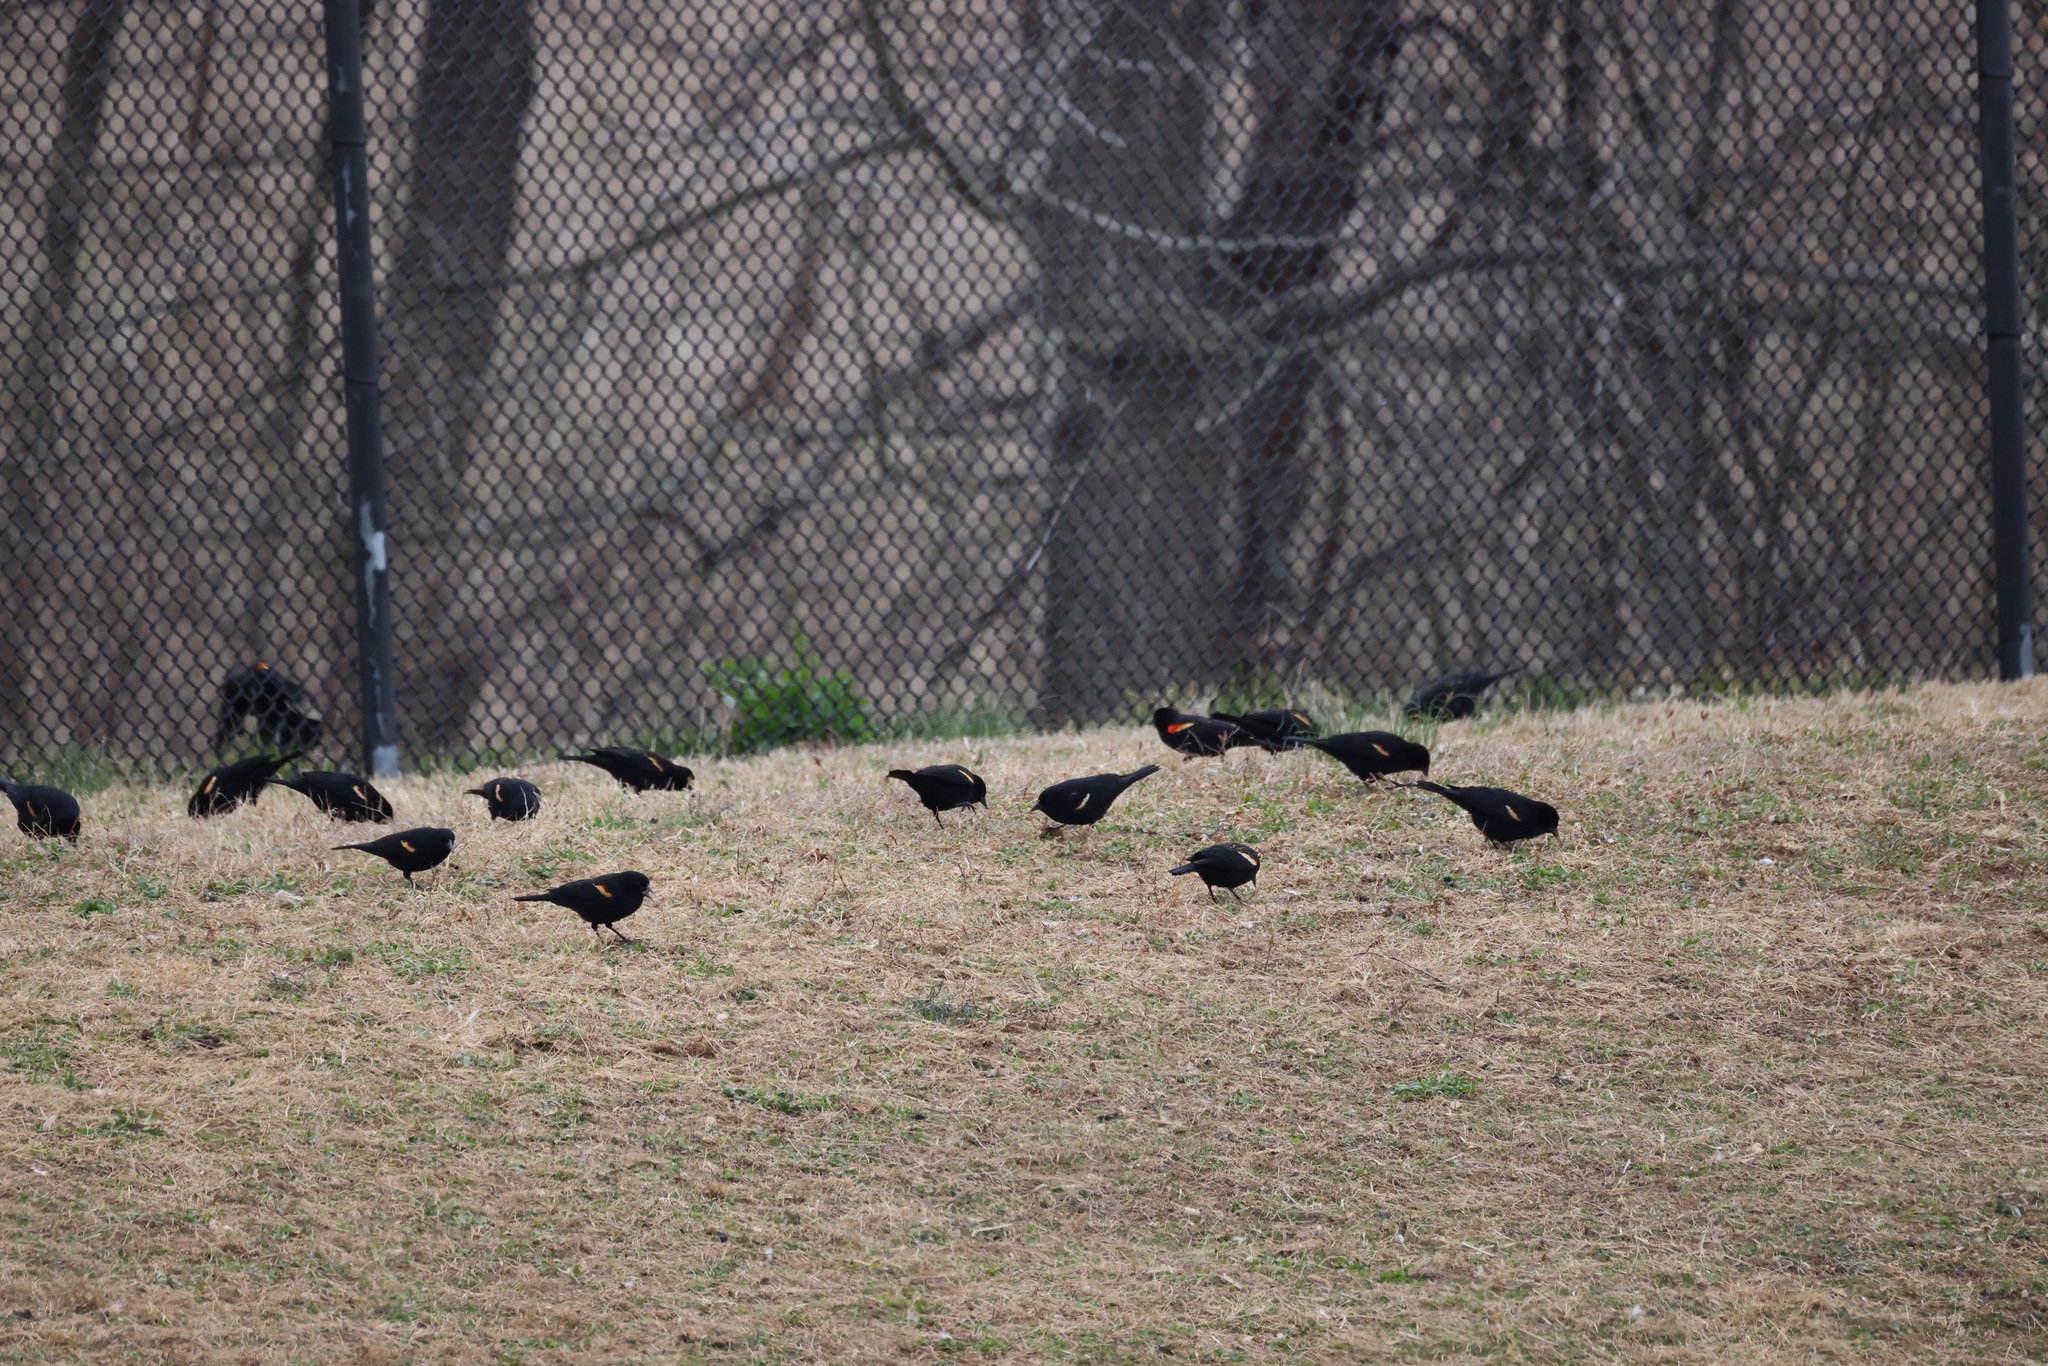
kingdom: Animalia
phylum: Chordata
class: Aves
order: Passeriformes
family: Icteridae
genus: Agelaius
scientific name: Agelaius phoeniceus
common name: Red-winged blackbird
